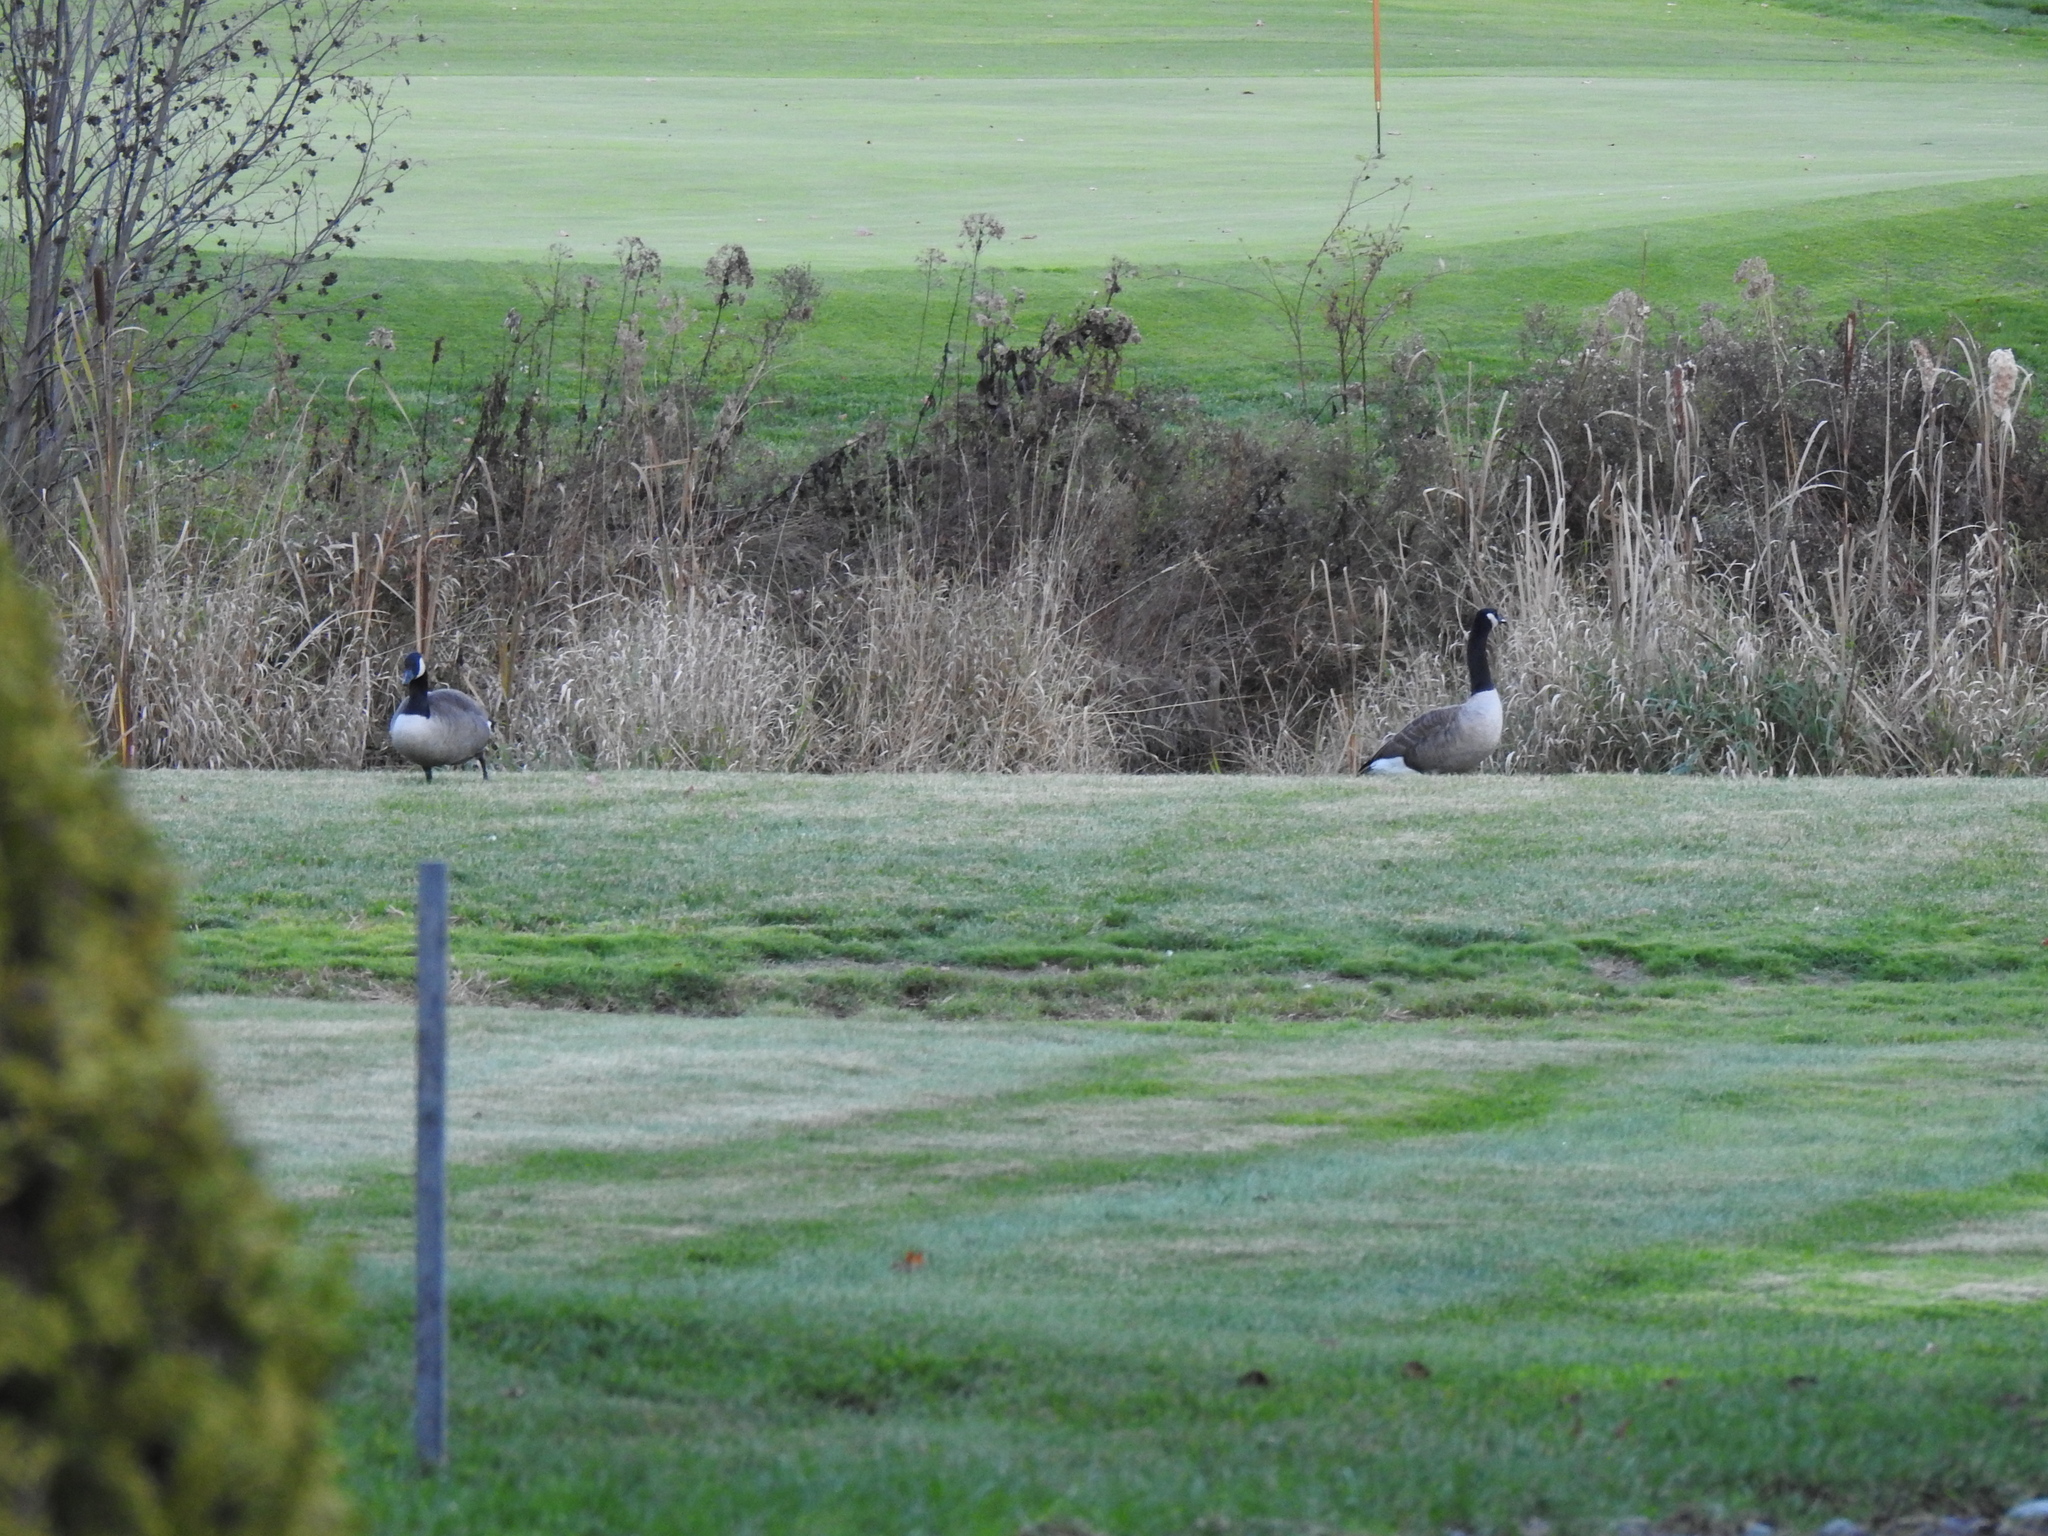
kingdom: Animalia
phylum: Chordata
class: Aves
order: Anseriformes
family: Anatidae
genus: Branta
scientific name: Branta canadensis
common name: Canada goose
